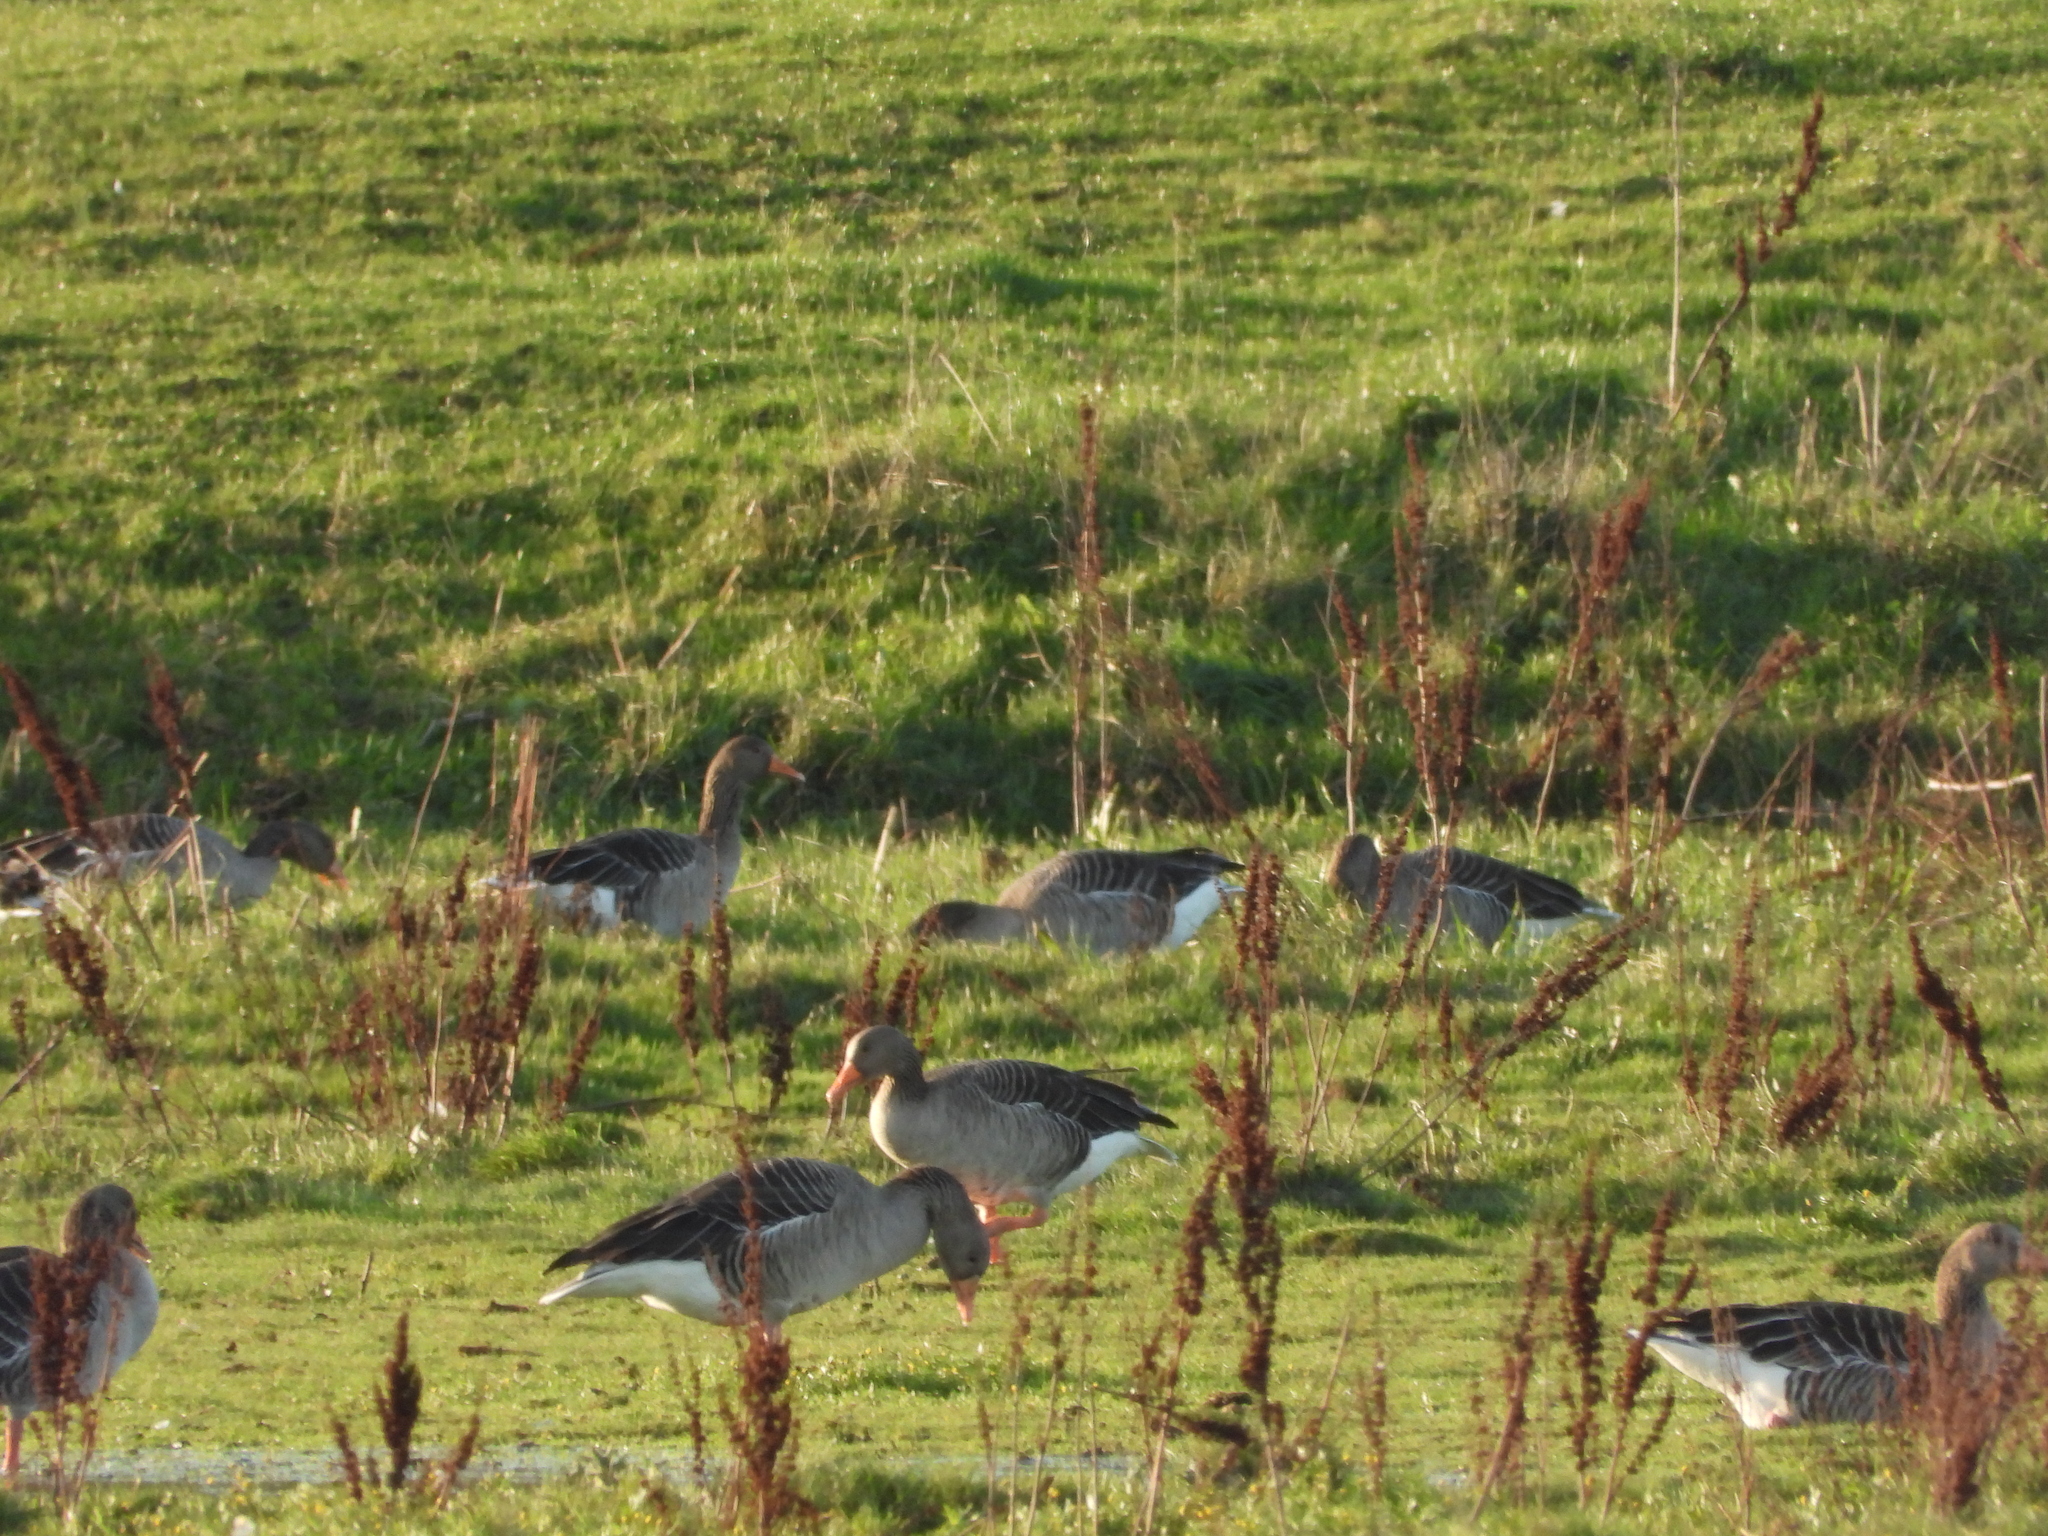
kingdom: Animalia
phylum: Chordata
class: Aves
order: Anseriformes
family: Anatidae
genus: Anser
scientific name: Anser anser
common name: Greylag goose
